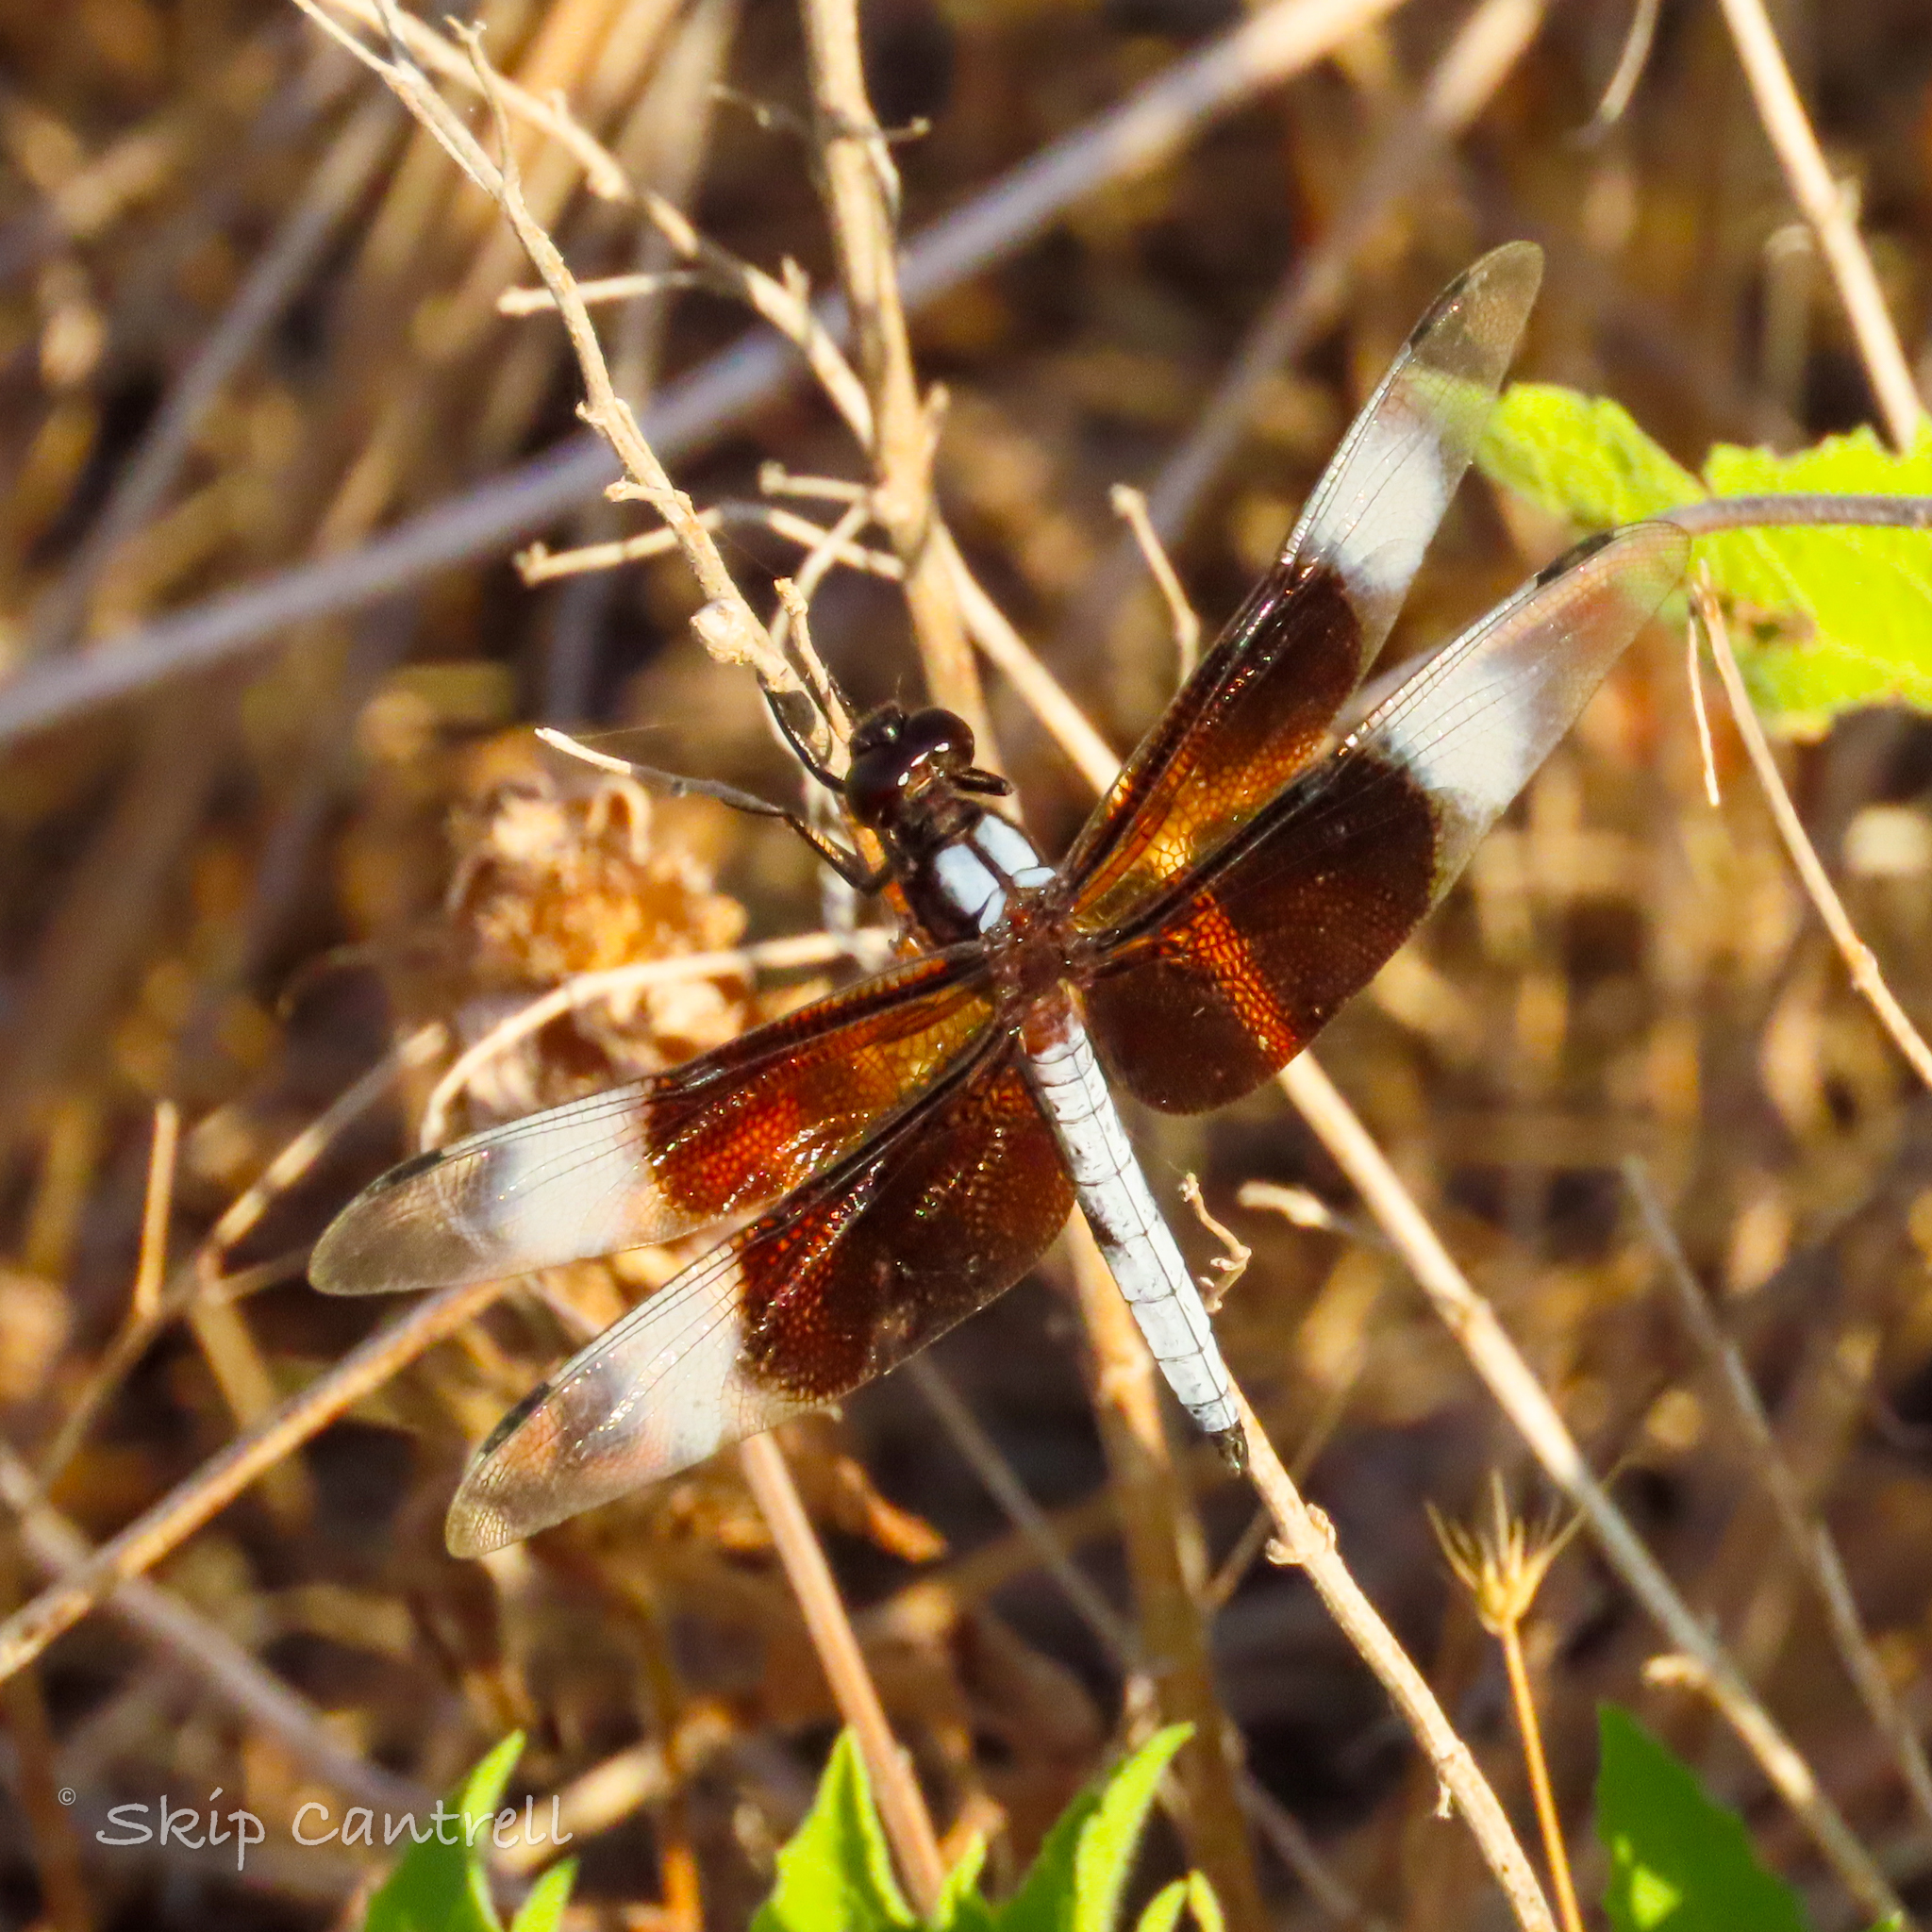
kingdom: Animalia
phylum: Arthropoda
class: Insecta
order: Odonata
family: Libellulidae
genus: Libellula
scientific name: Libellula luctuosa
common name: Widow skimmer
